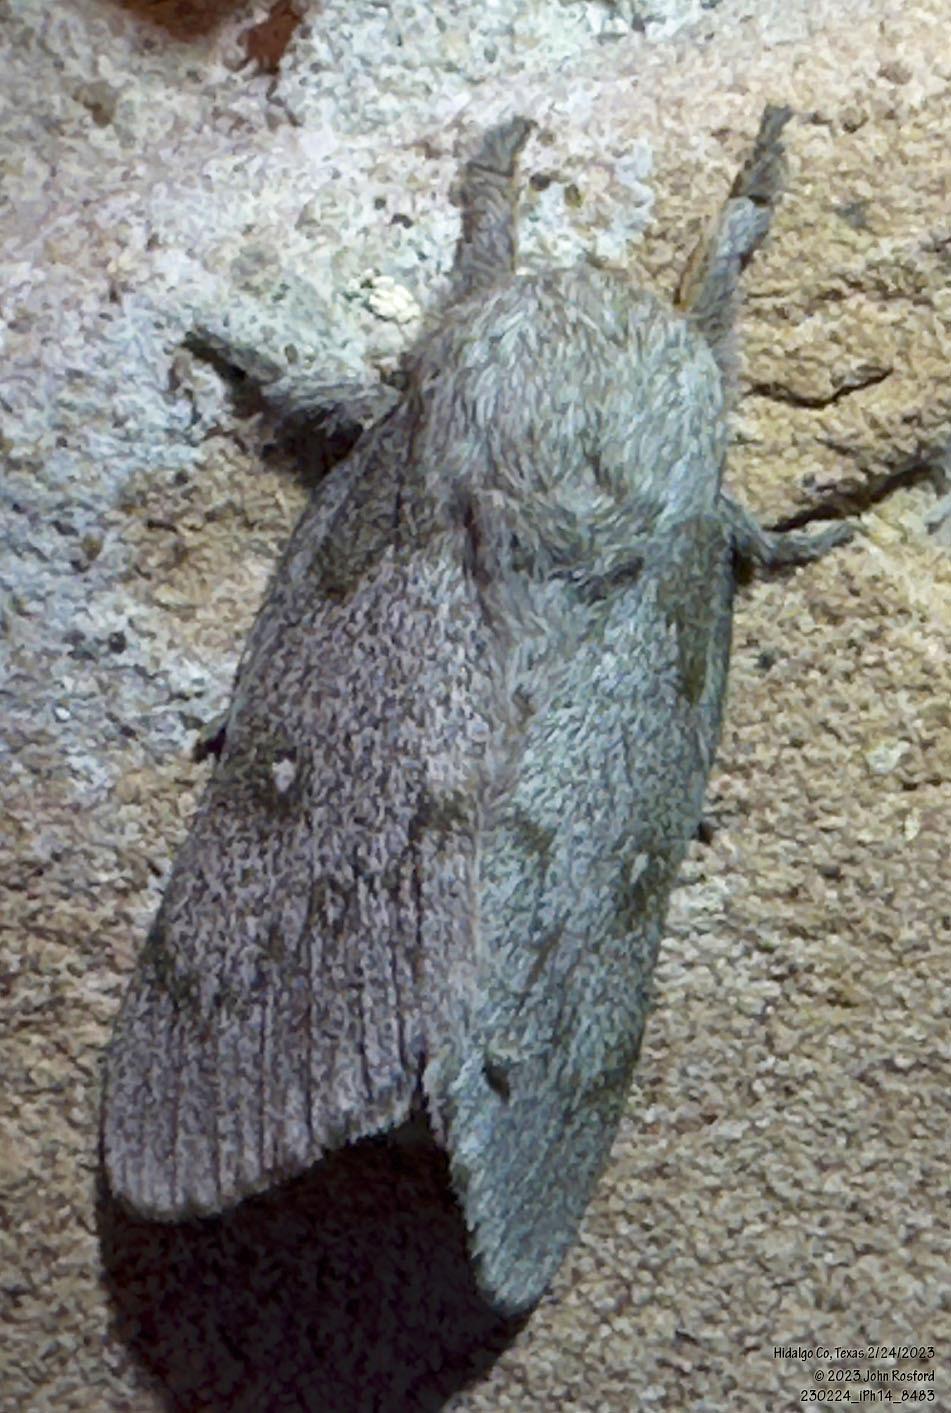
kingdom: Animalia
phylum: Arthropoda
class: Insecta
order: Lepidoptera
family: Saturniidae
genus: Syssphinx
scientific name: Syssphinx heiligbrodti
